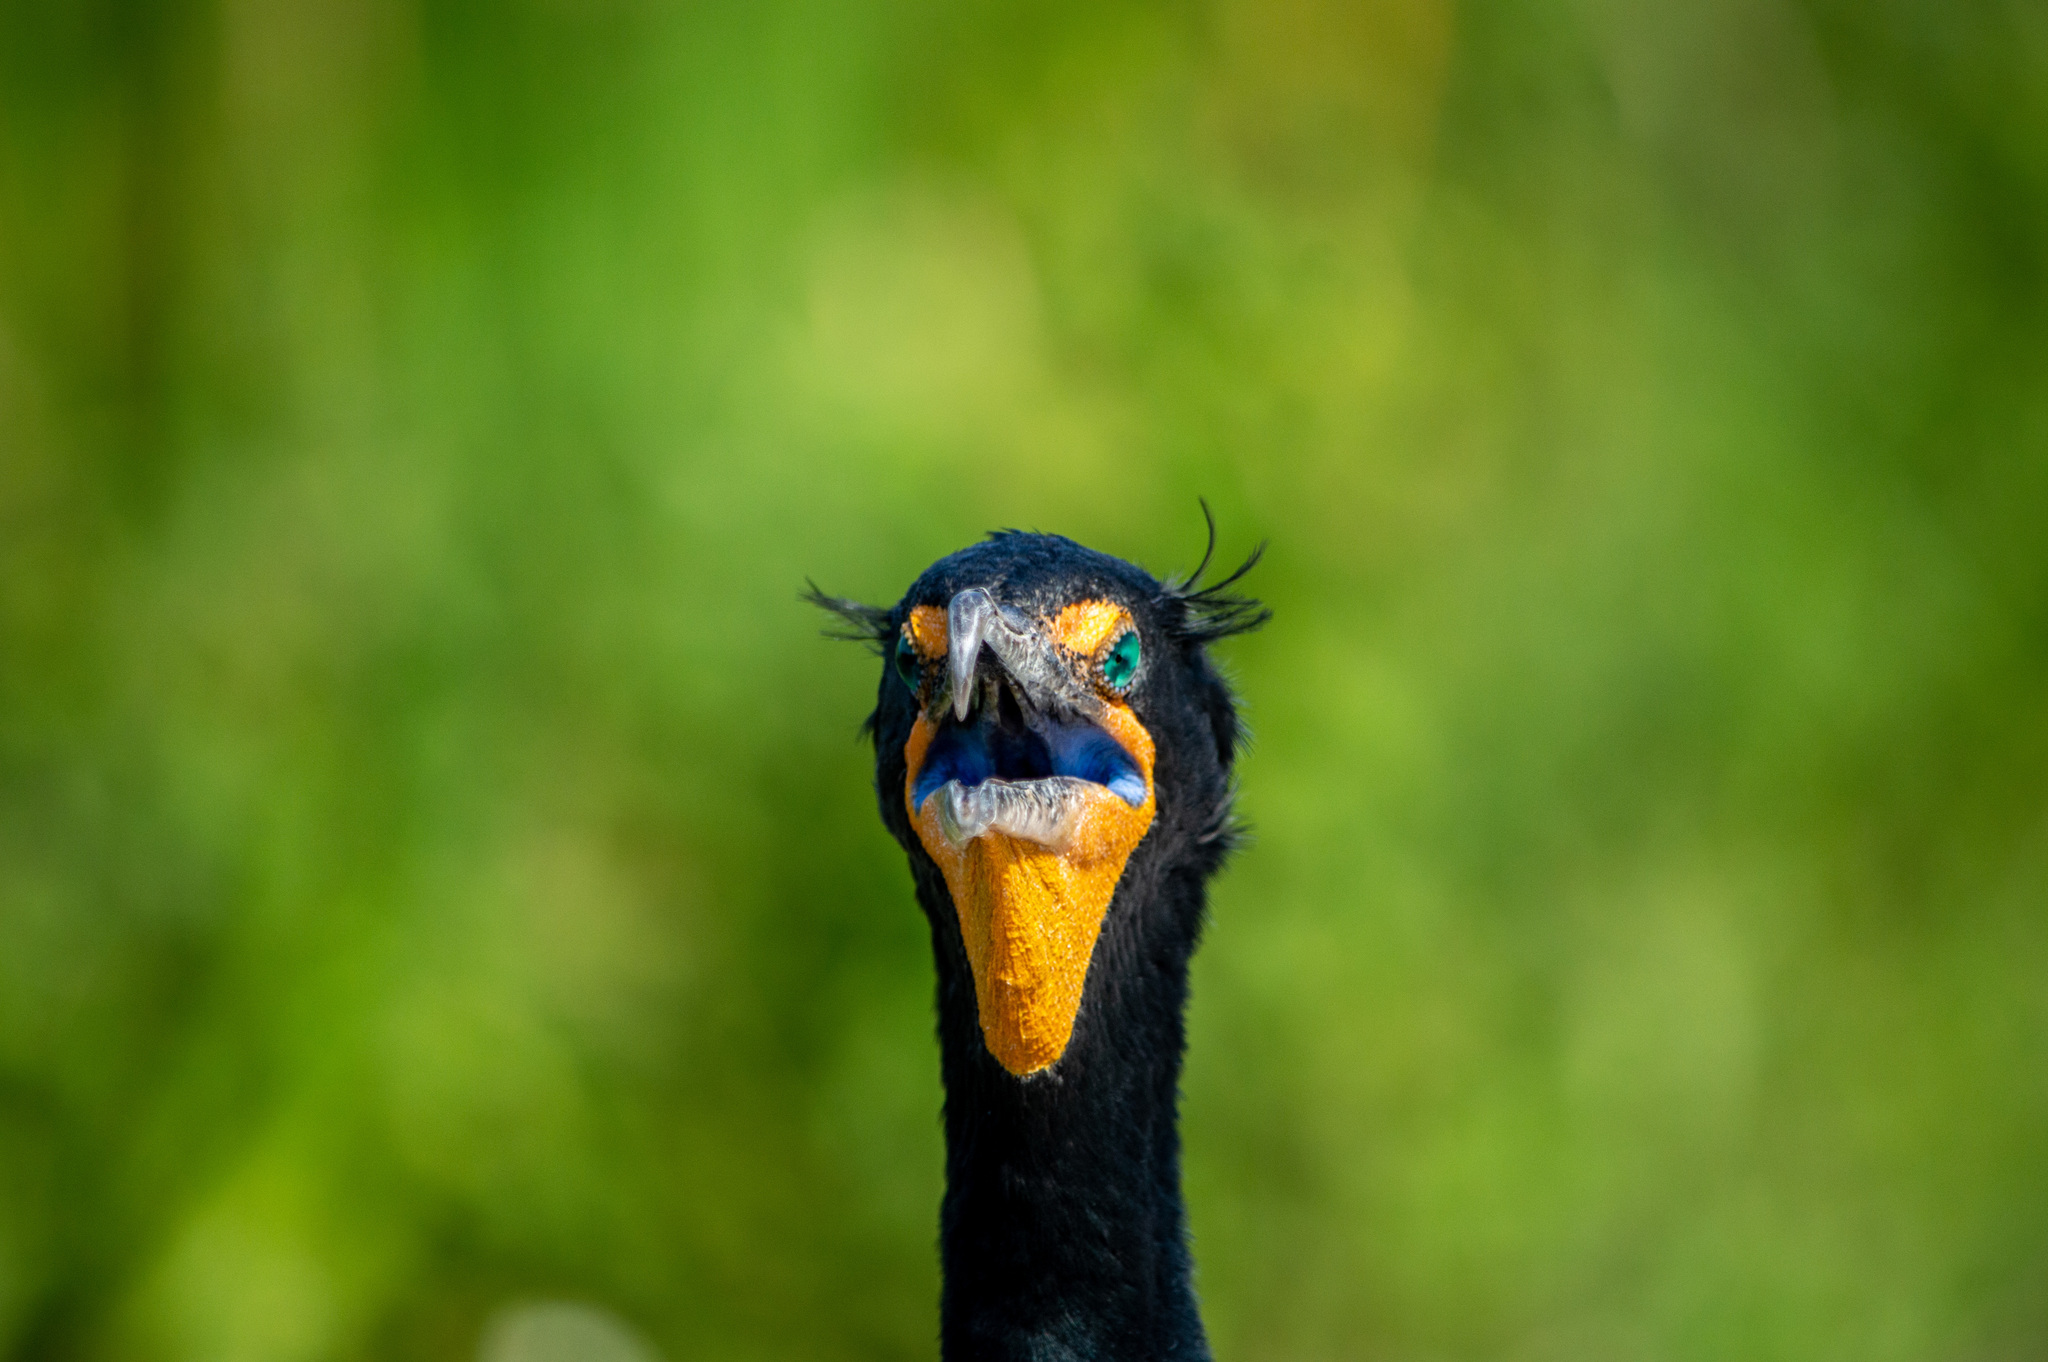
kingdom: Animalia
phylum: Chordata
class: Aves
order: Suliformes
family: Phalacrocoracidae
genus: Phalacrocorax
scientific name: Phalacrocorax auritus
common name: Double-crested cormorant
